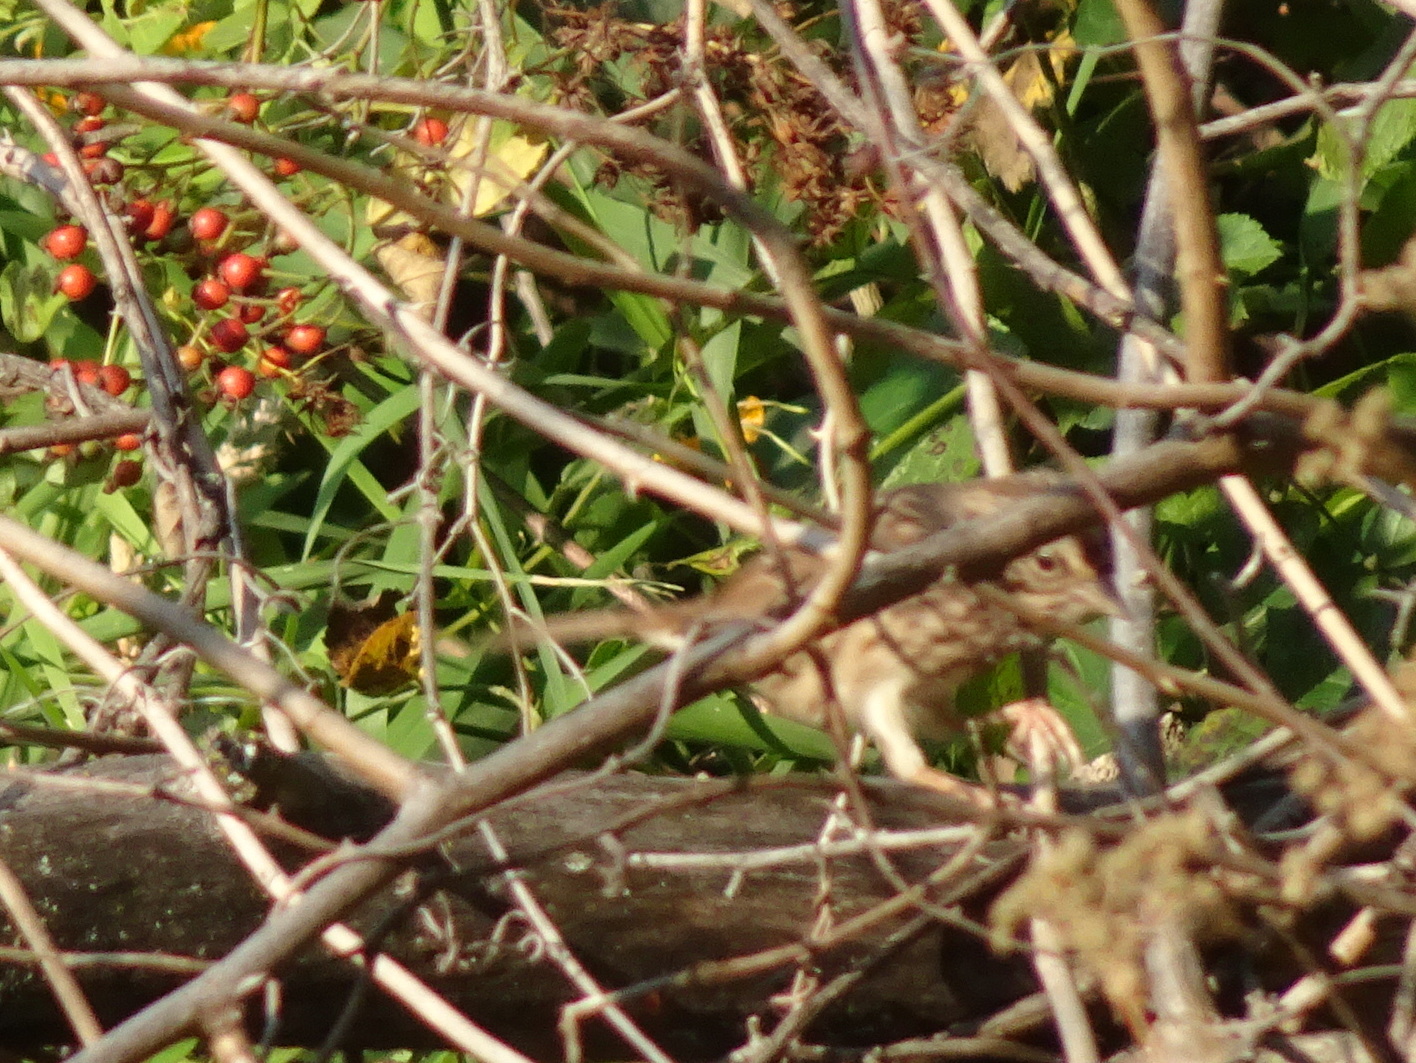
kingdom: Animalia
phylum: Chordata
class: Aves
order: Passeriformes
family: Passerellidae
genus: Melospiza
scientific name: Melospiza melodia
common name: Song sparrow
